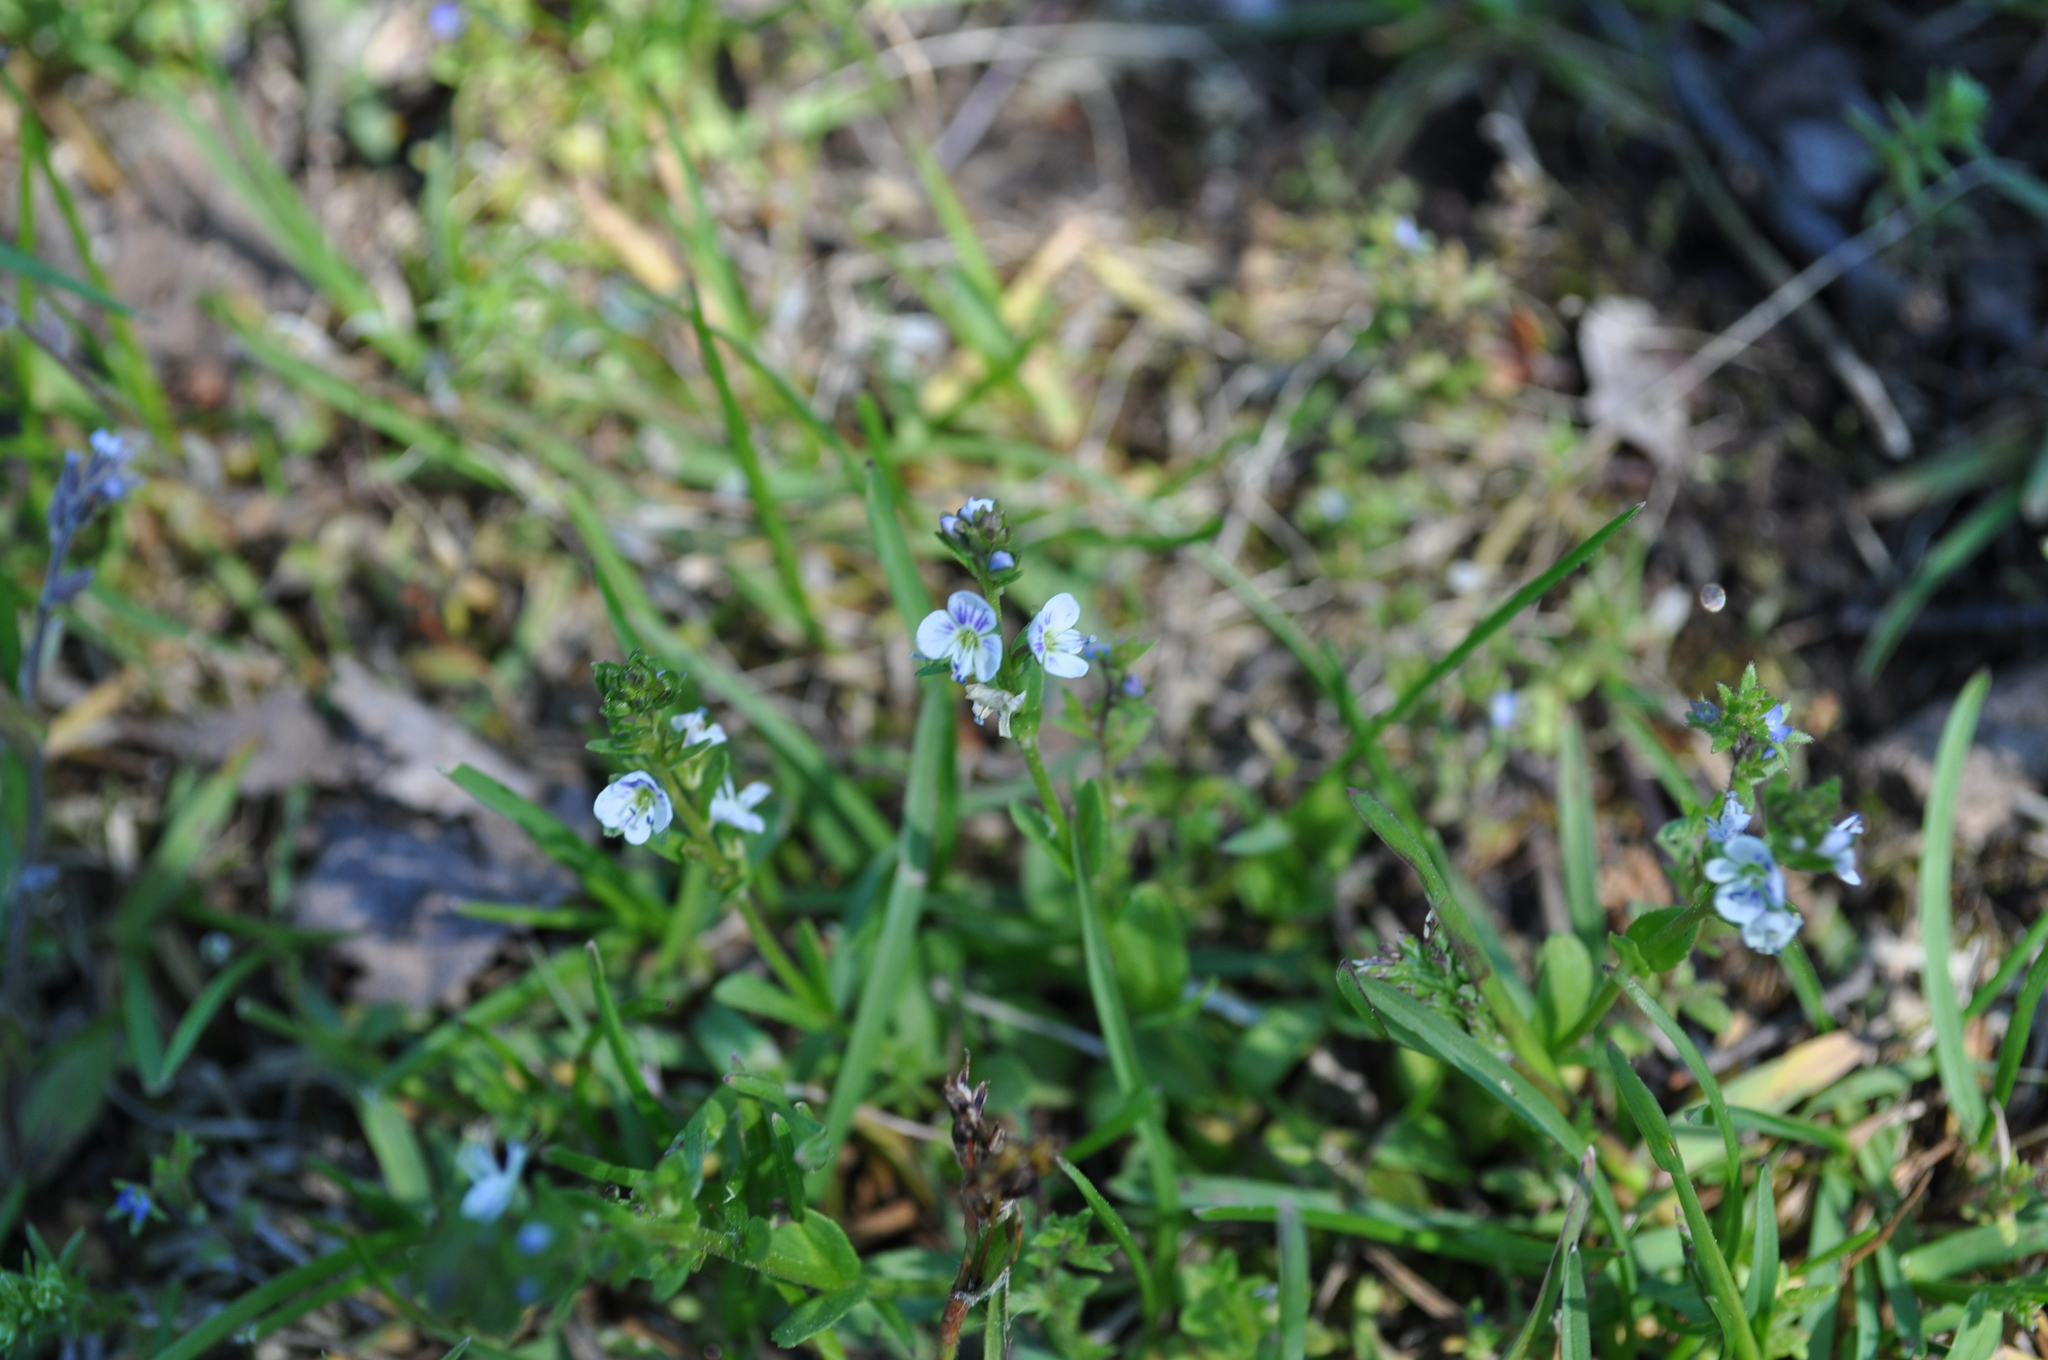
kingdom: Plantae
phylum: Tracheophyta
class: Magnoliopsida
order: Lamiales
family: Plantaginaceae
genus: Veronica
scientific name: Veronica serpyllifolia
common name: Thyme-leaved speedwell
